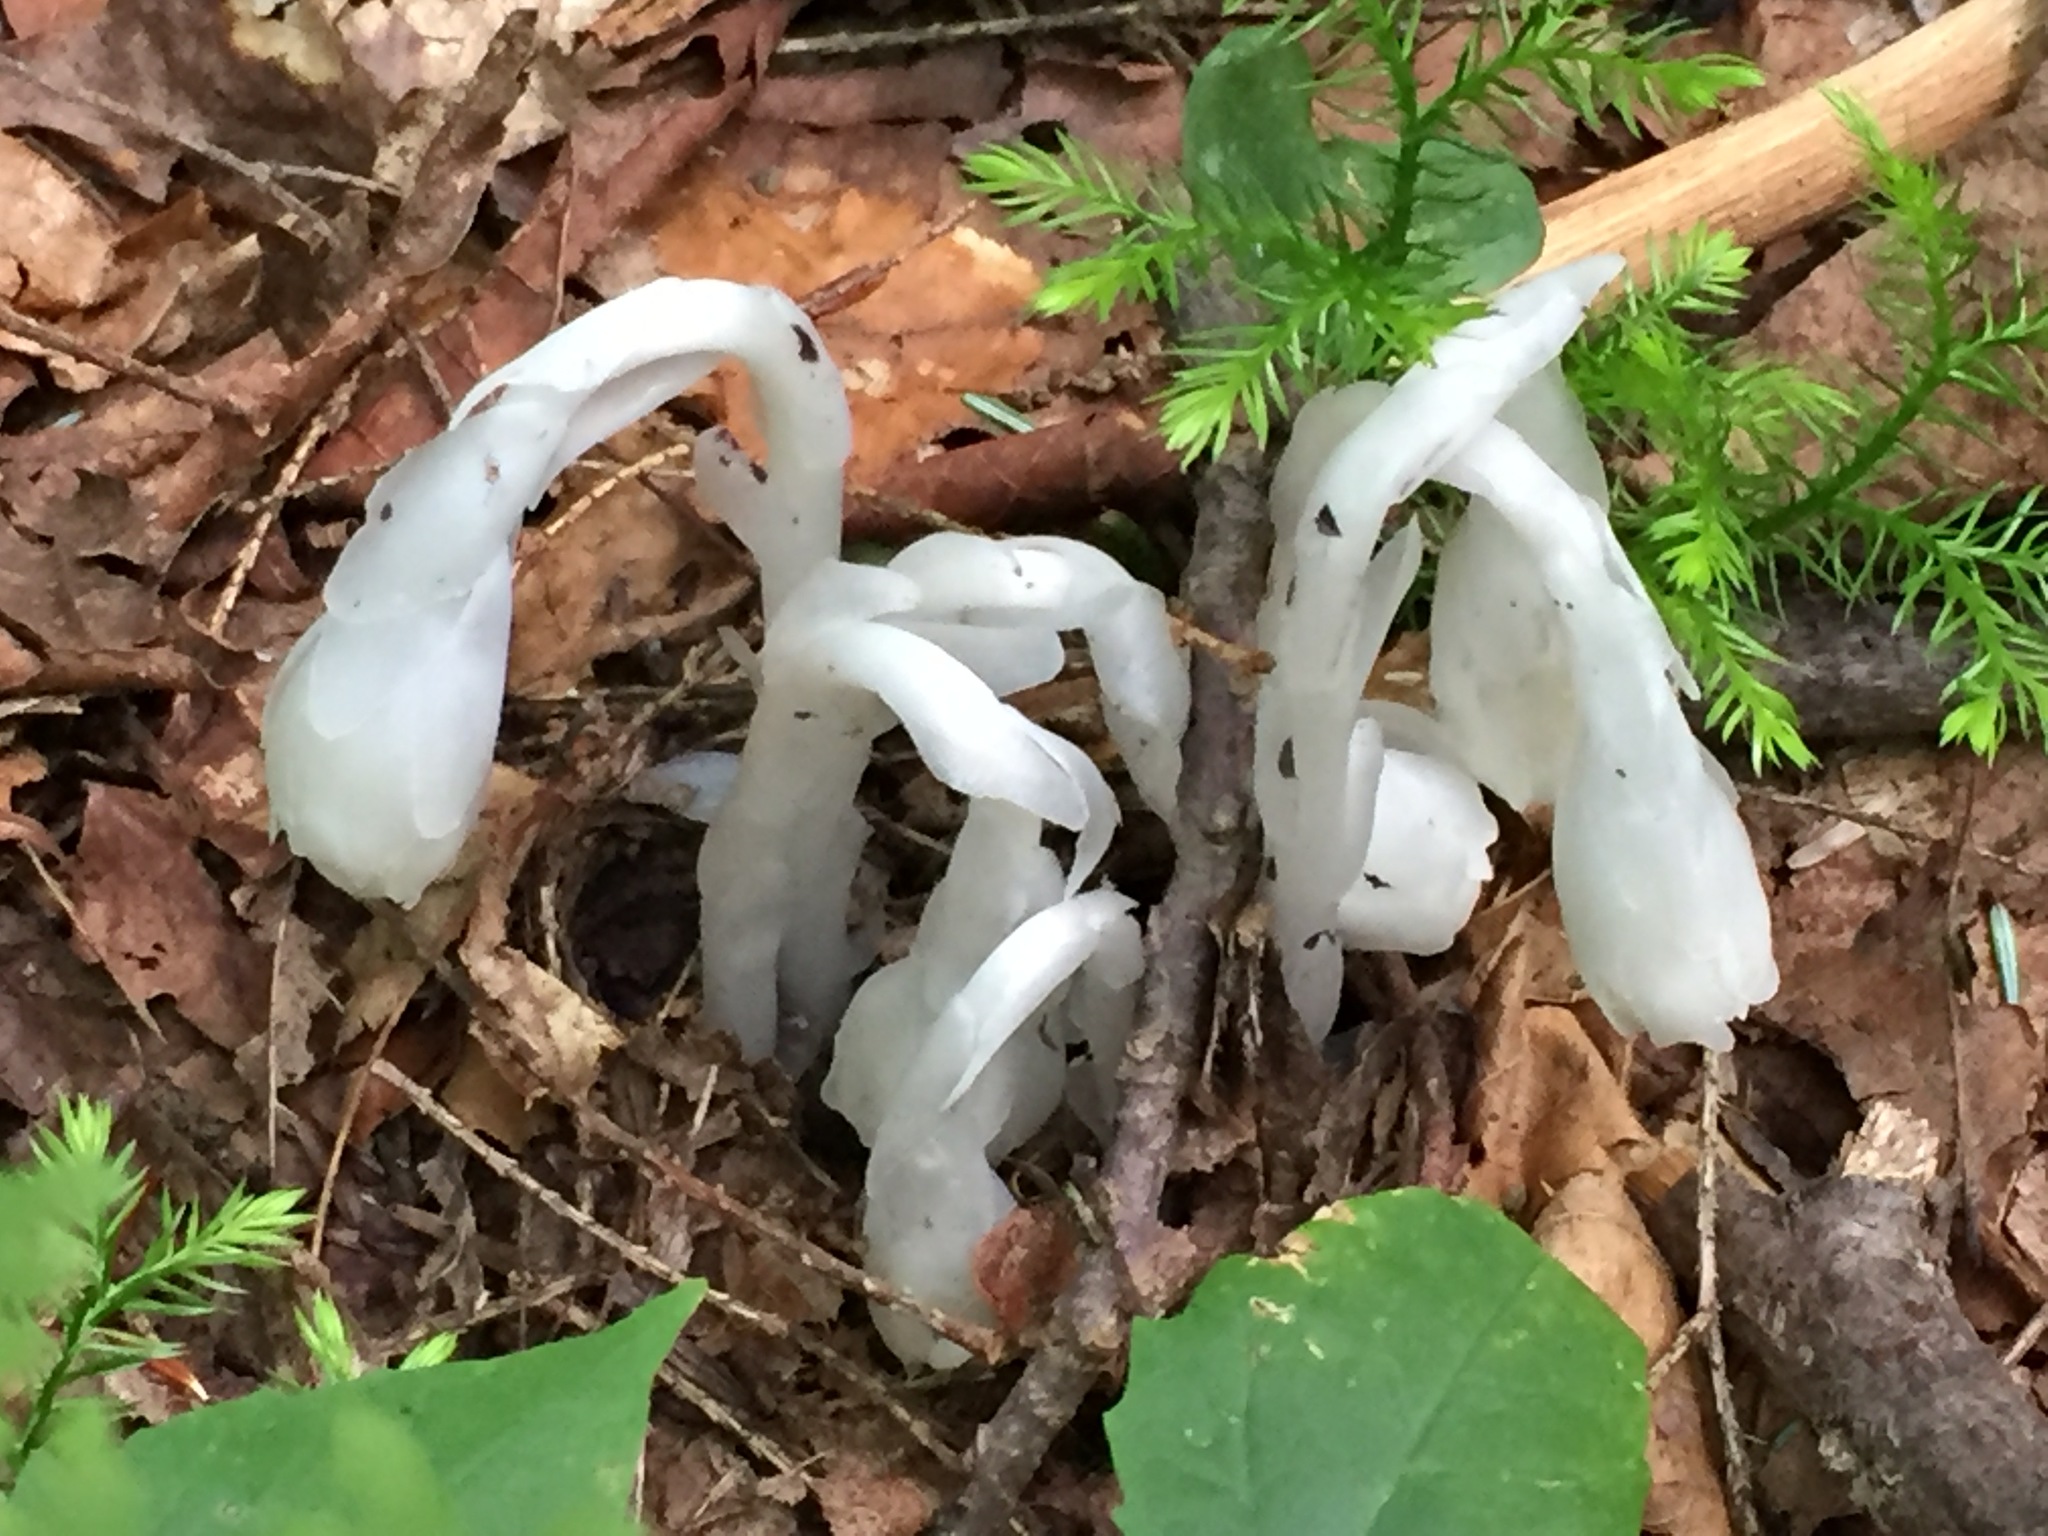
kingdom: Plantae
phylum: Tracheophyta
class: Magnoliopsida
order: Ericales
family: Ericaceae
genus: Monotropa
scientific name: Monotropa uniflora
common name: Convulsion root
